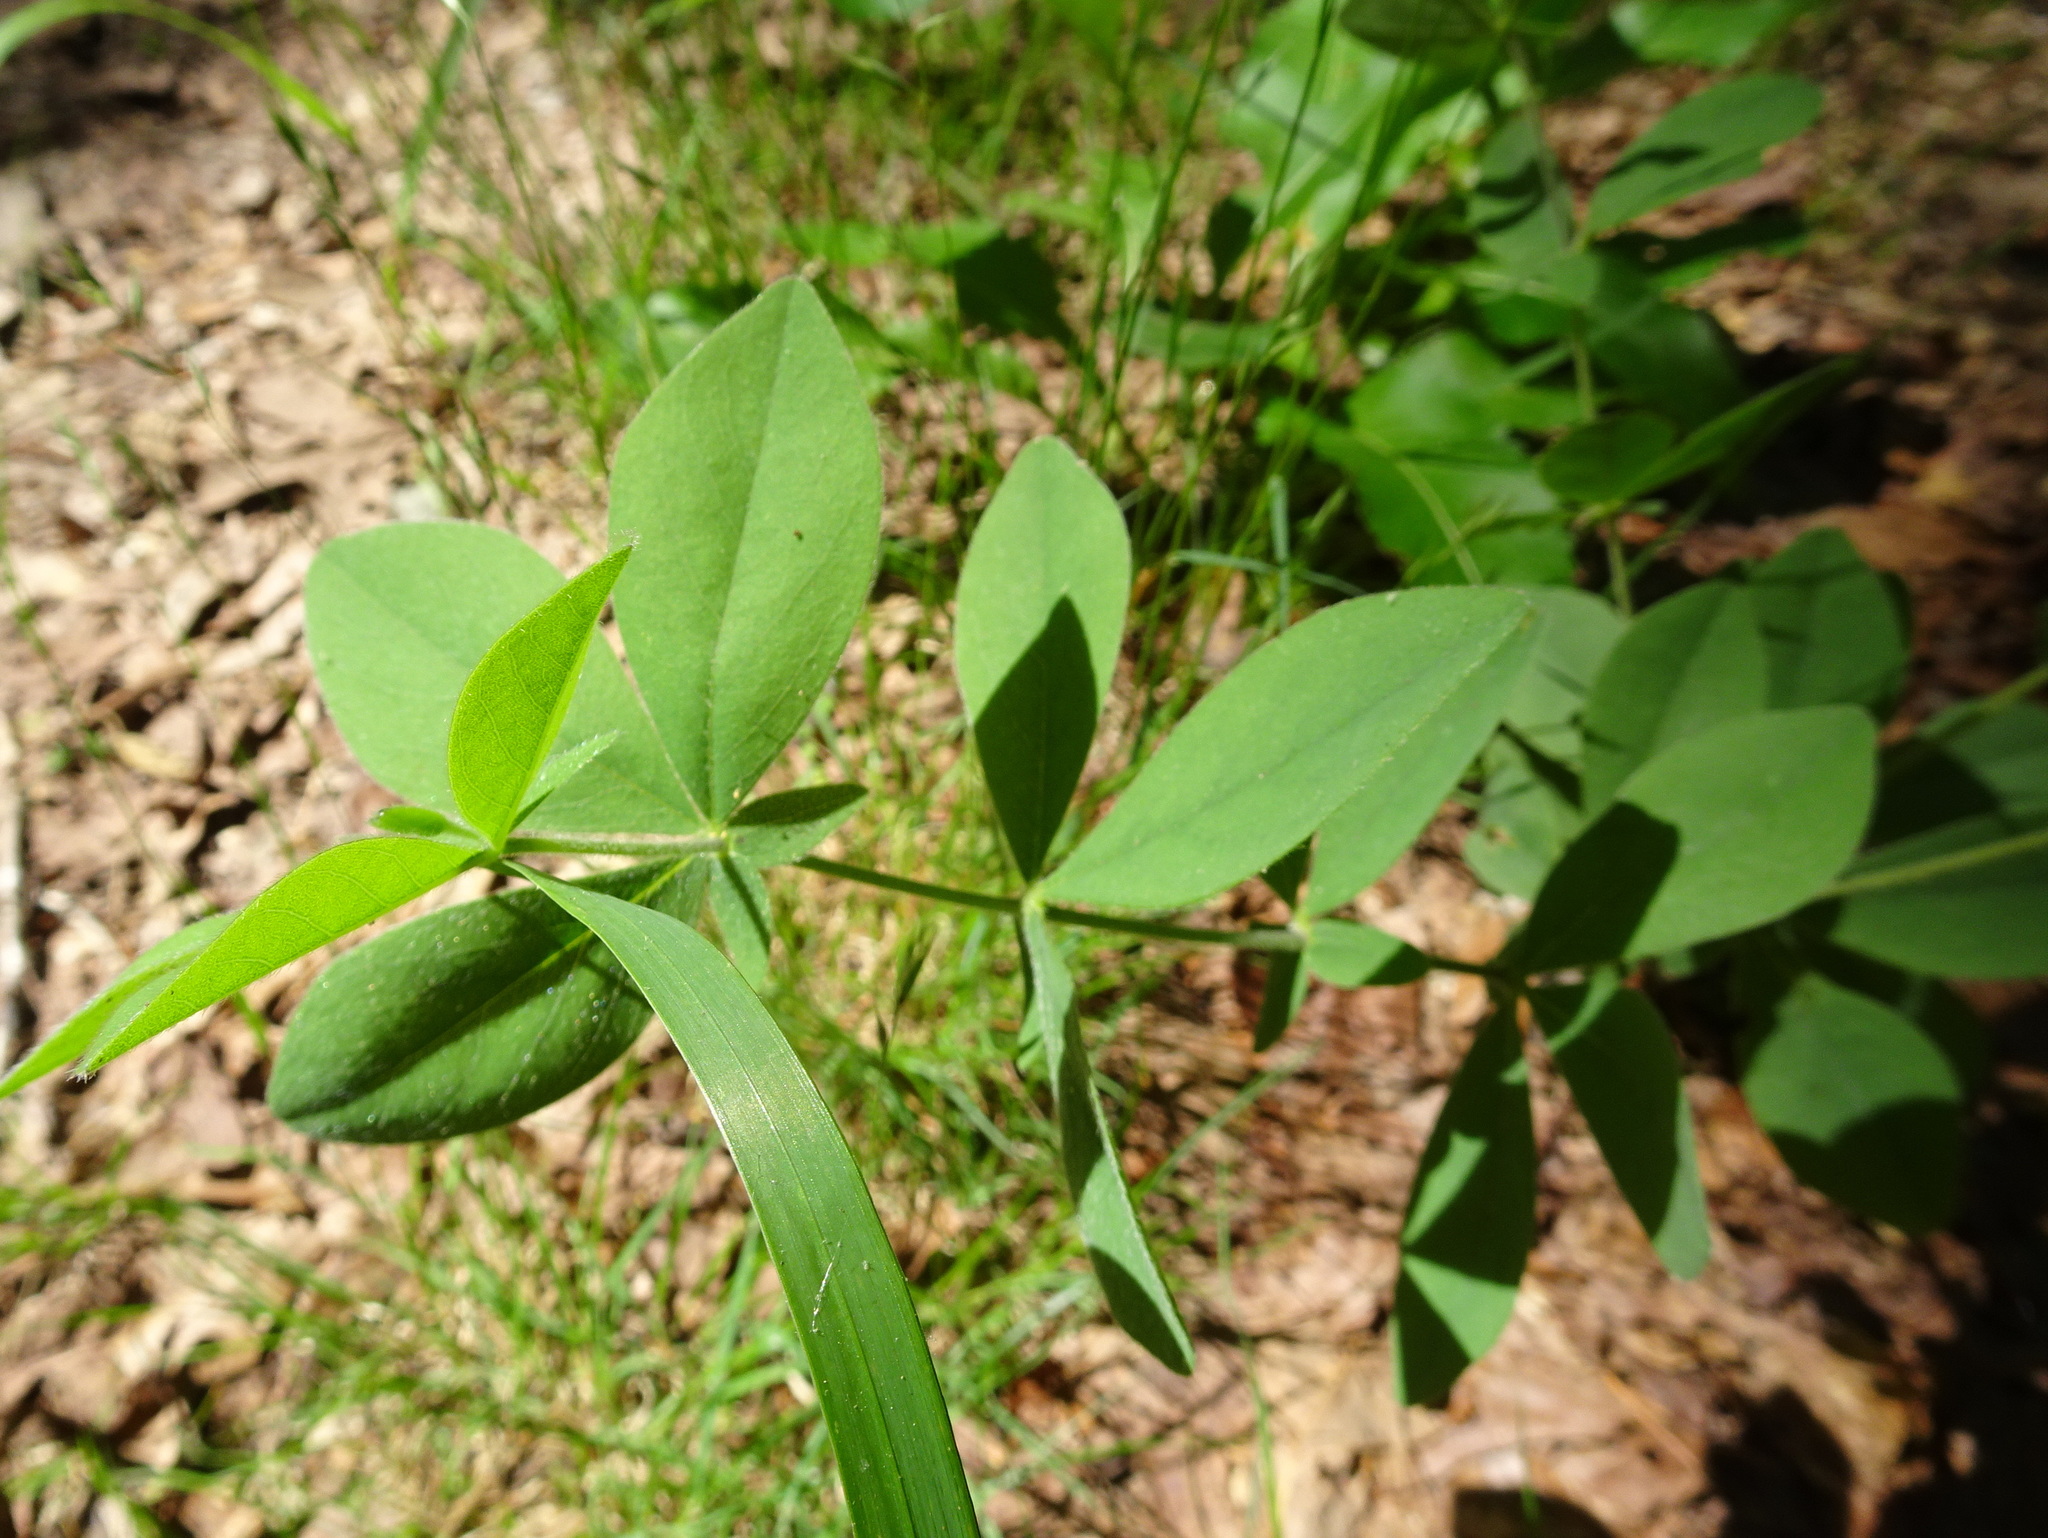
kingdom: Plantae
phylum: Tracheophyta
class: Magnoliopsida
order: Fabales
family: Fabaceae
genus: Baptisia
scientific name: Baptisia bracteata
